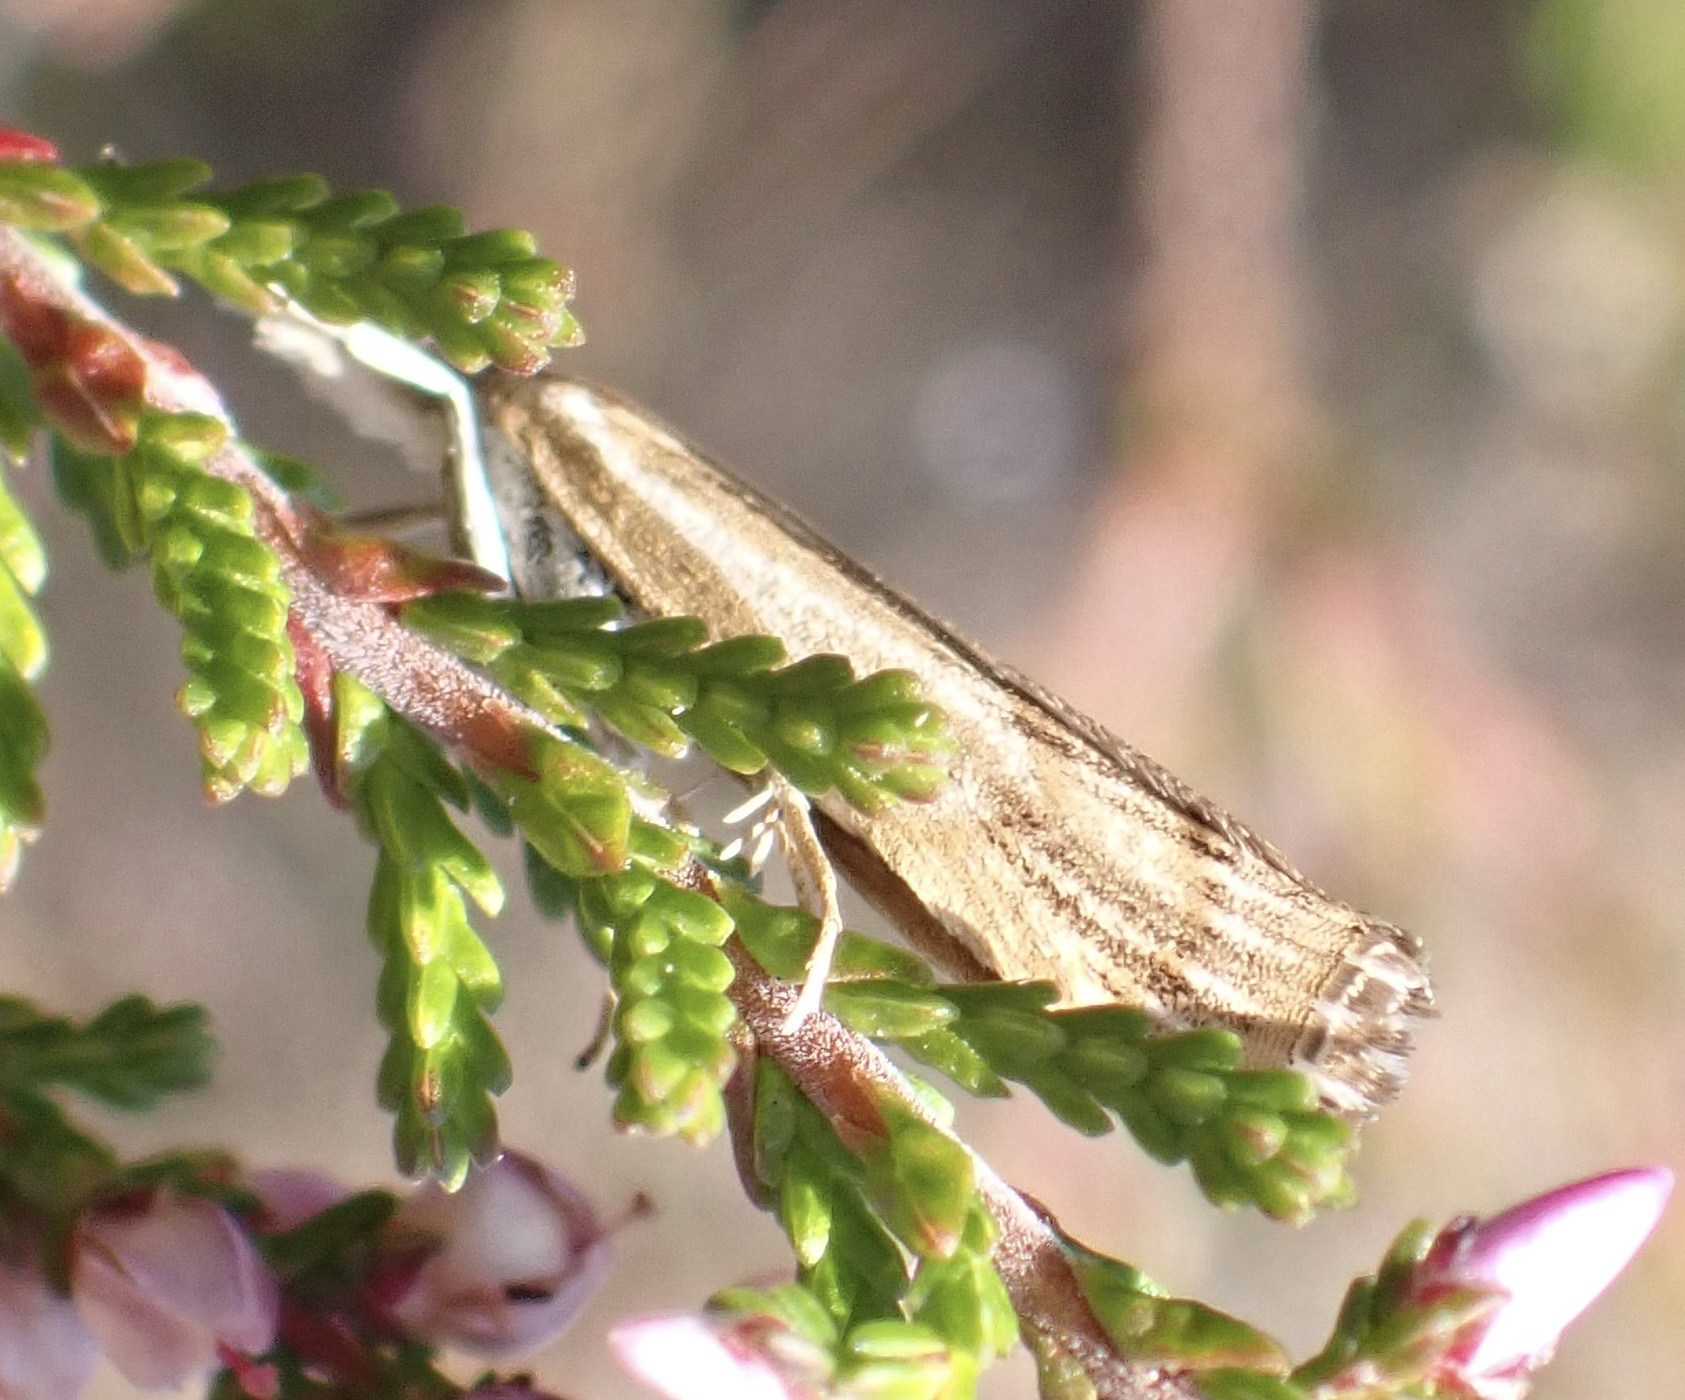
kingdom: Animalia
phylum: Arthropoda
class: Insecta
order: Lepidoptera
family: Crambidae
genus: Agriphila
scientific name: Agriphila inquinatella
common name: Barred grass-veneer
